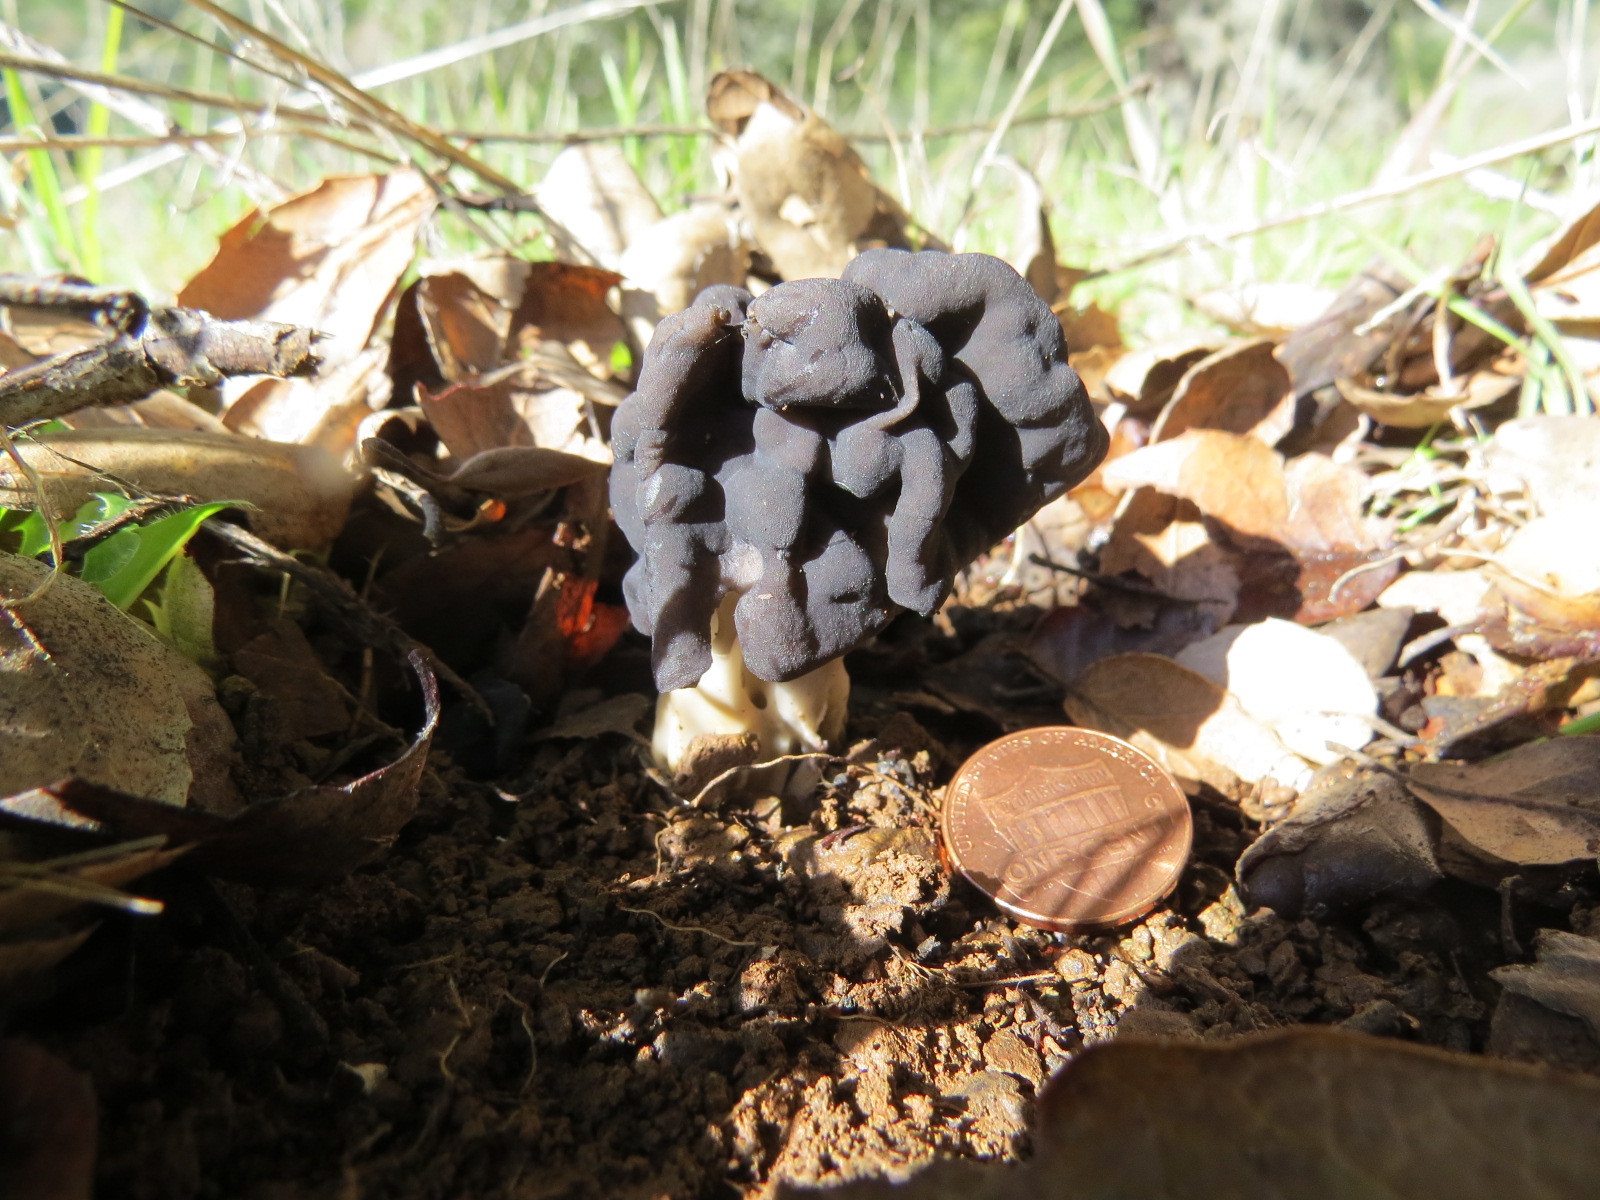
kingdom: Fungi
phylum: Ascomycota
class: Pezizomycetes
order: Pezizales
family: Helvellaceae
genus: Helvella
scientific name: Helvella dryophila
